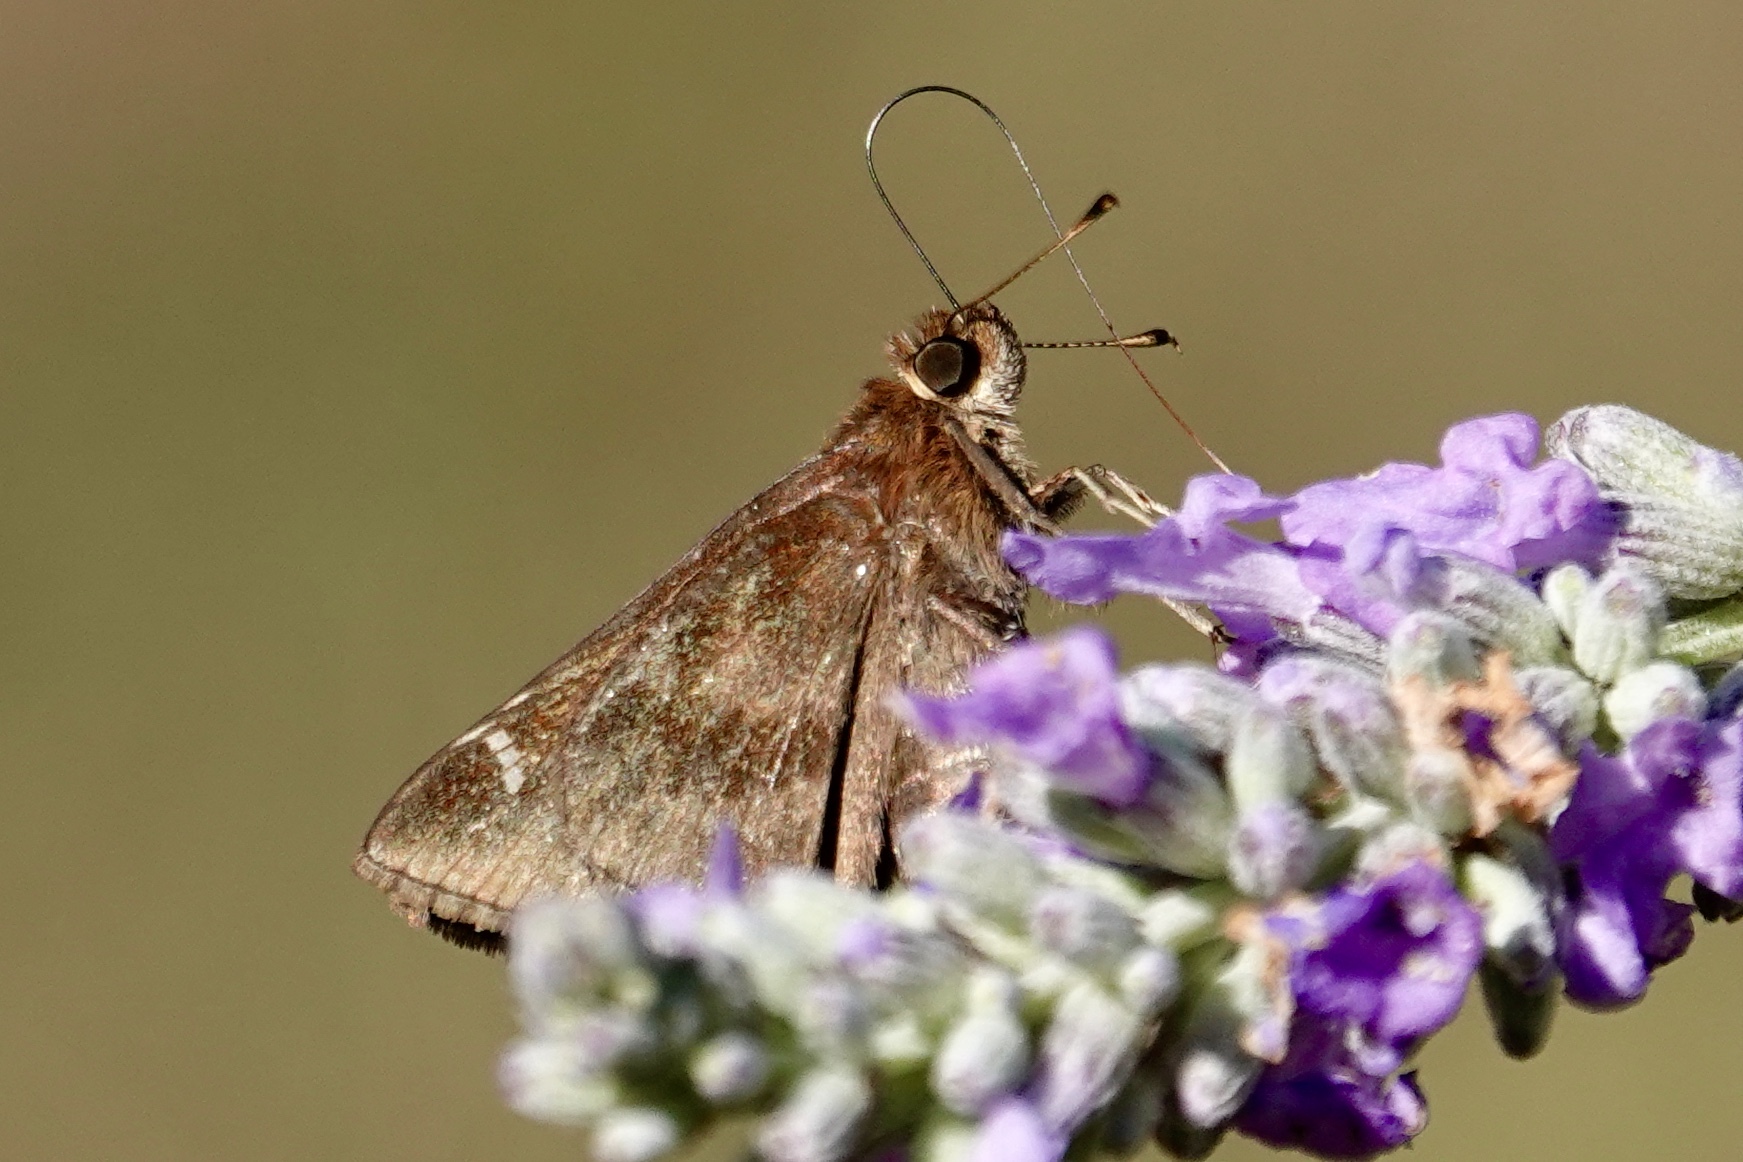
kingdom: Animalia
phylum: Arthropoda
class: Insecta
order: Lepidoptera
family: Hesperiidae
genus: Lerema
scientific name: Lerema accius
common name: Clouded skipper
